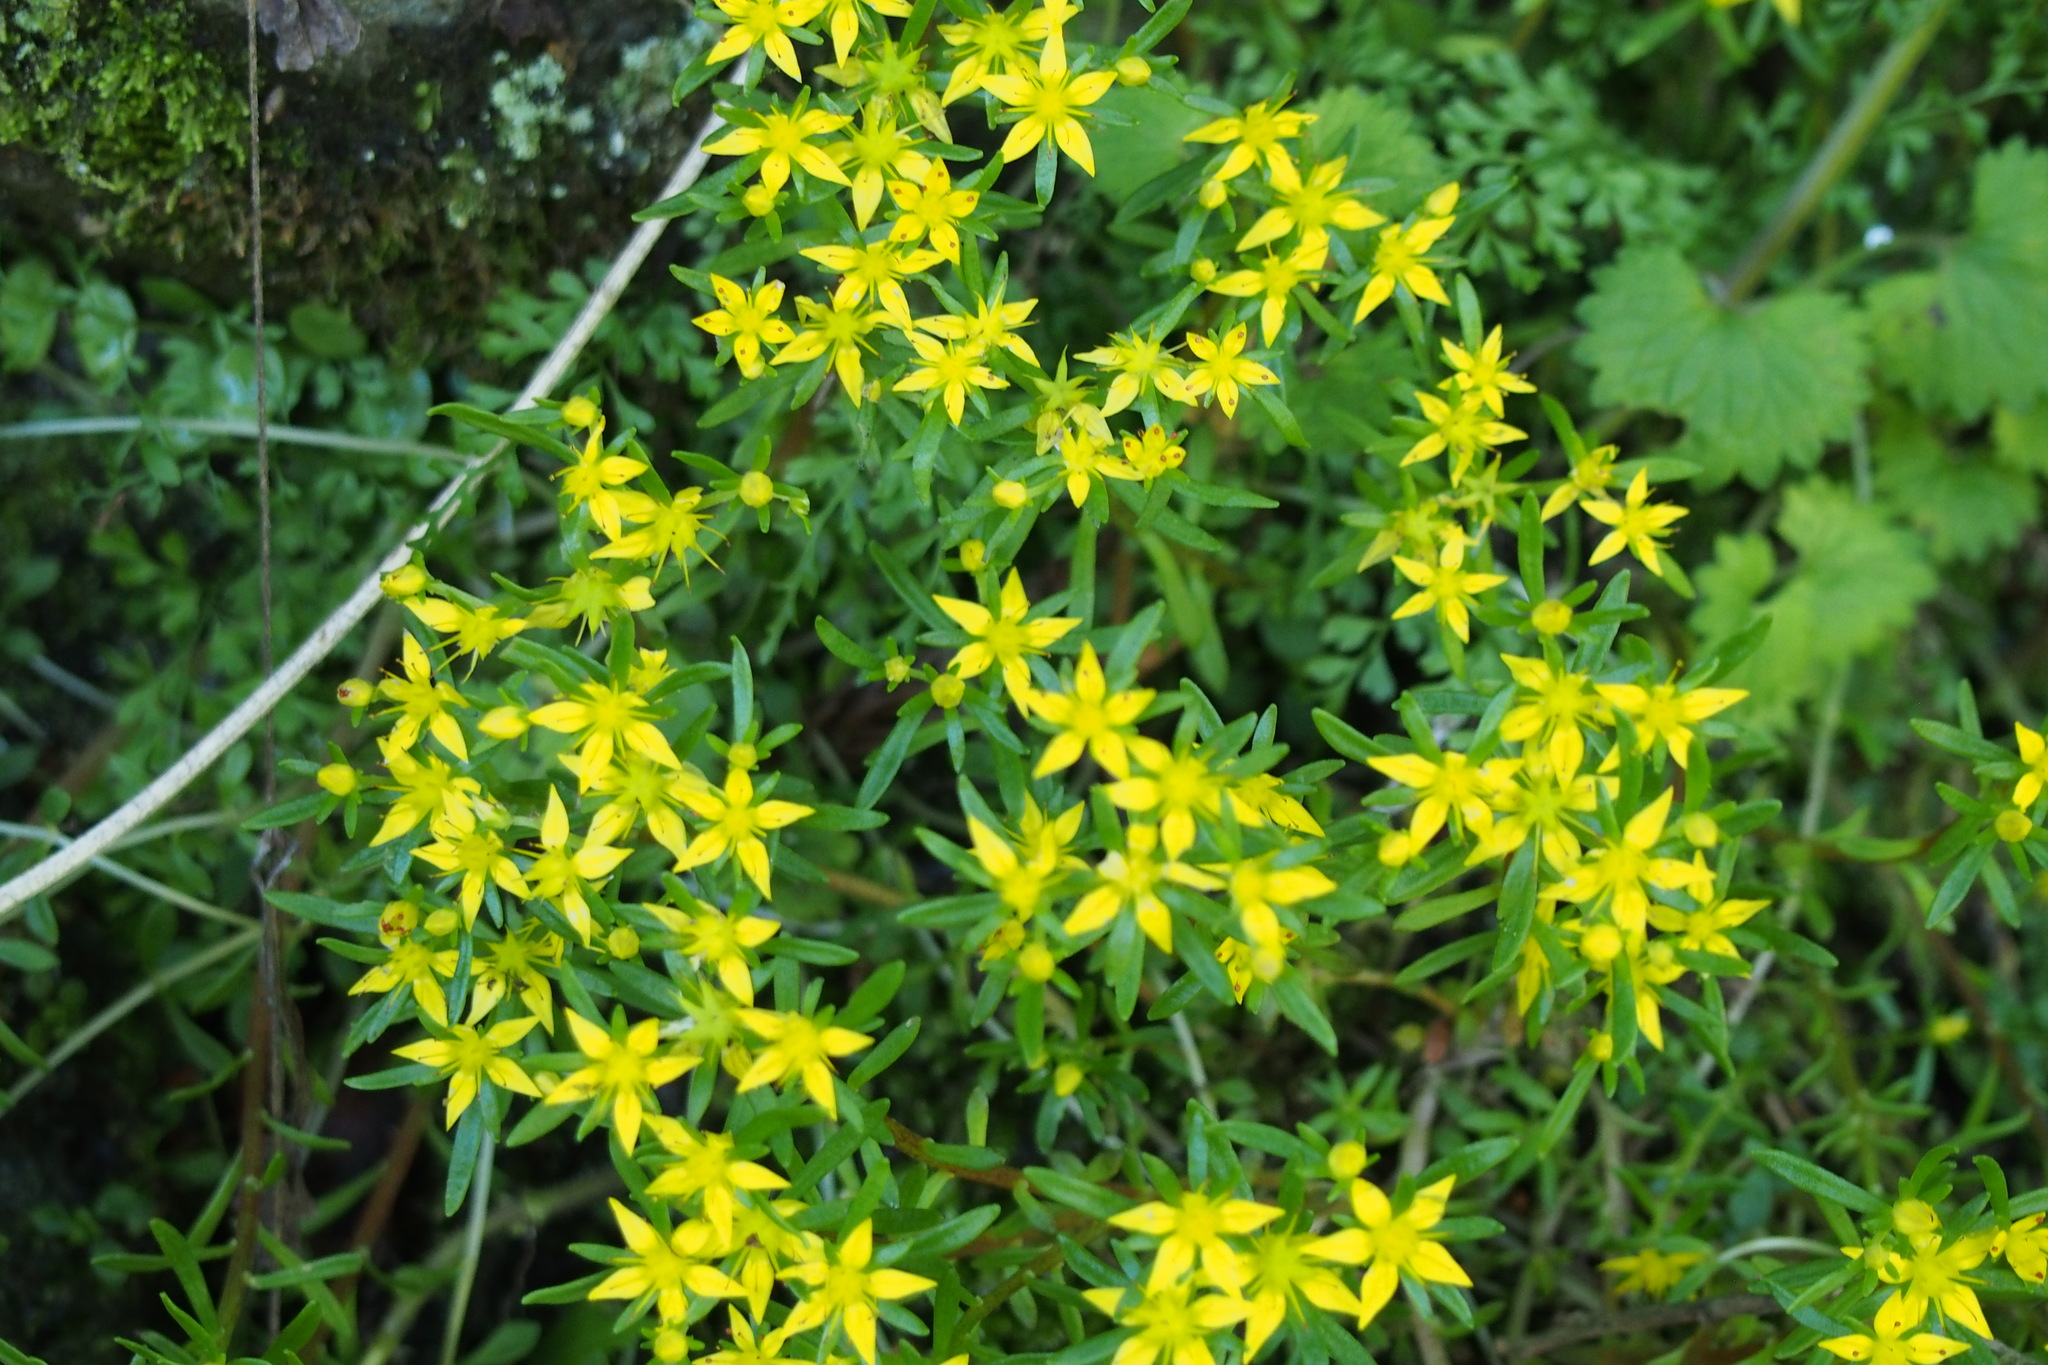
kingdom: Plantae
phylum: Tracheophyta
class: Magnoliopsida
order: Saxifragales
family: Crassulaceae
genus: Sedum
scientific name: Sedum sarmentosum
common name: Stringy stonecrop
